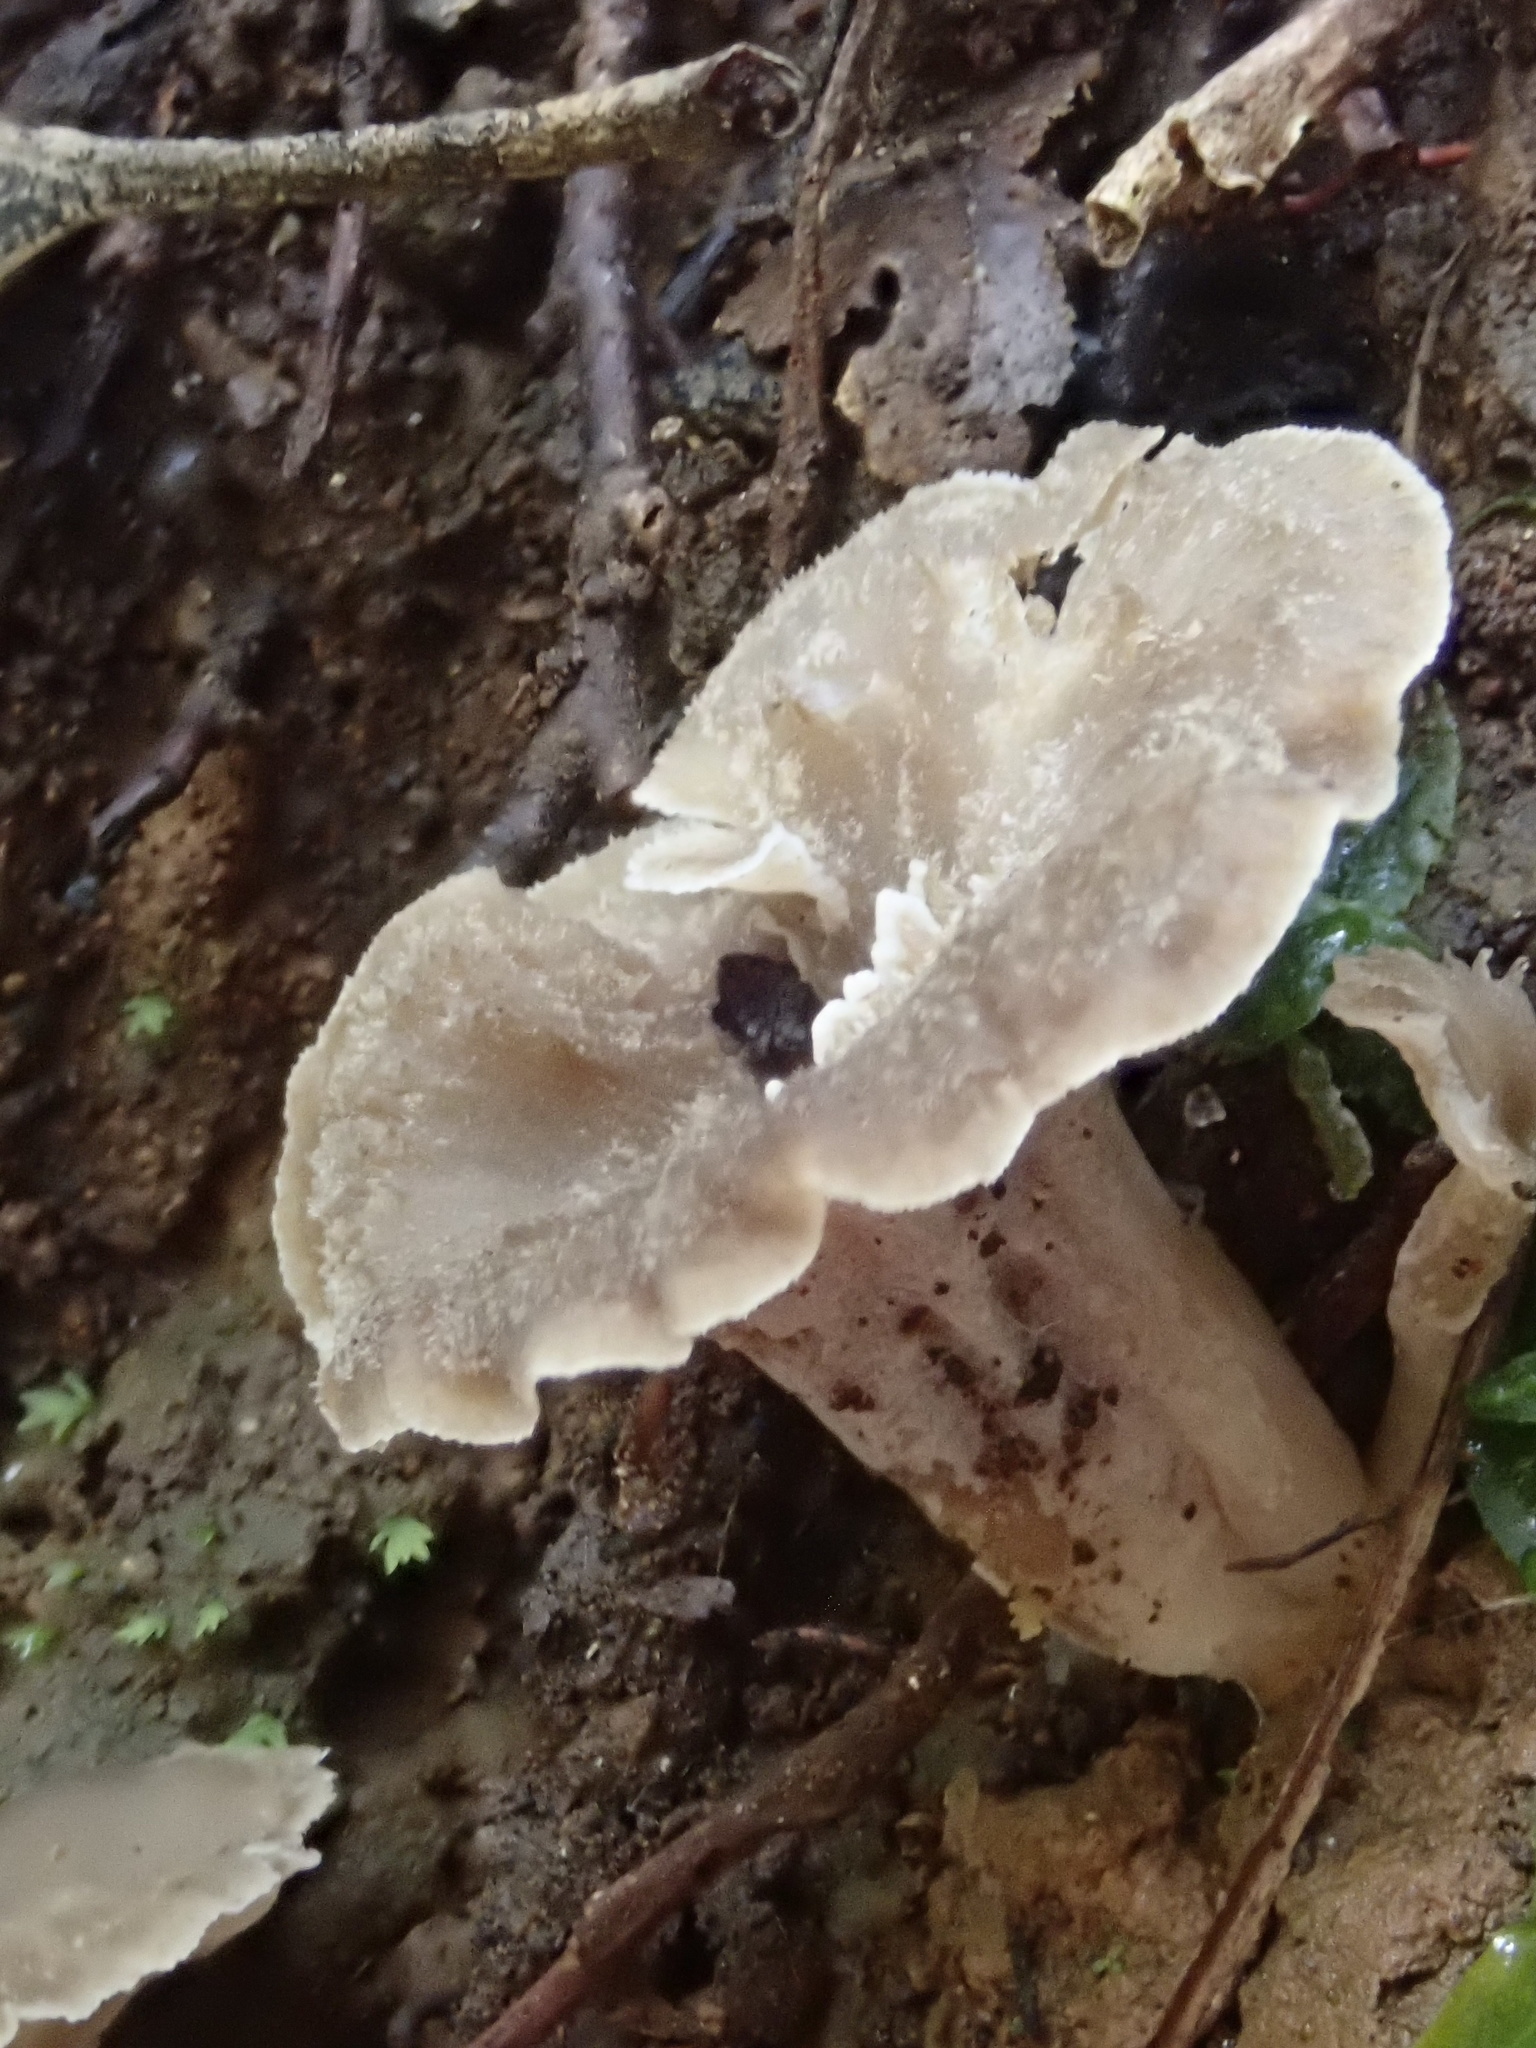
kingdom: Fungi
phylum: Basidiomycota
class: Agaricomycetes
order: Cantharellales
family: Hydnaceae
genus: Craterellus
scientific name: Craterellus undulatus
